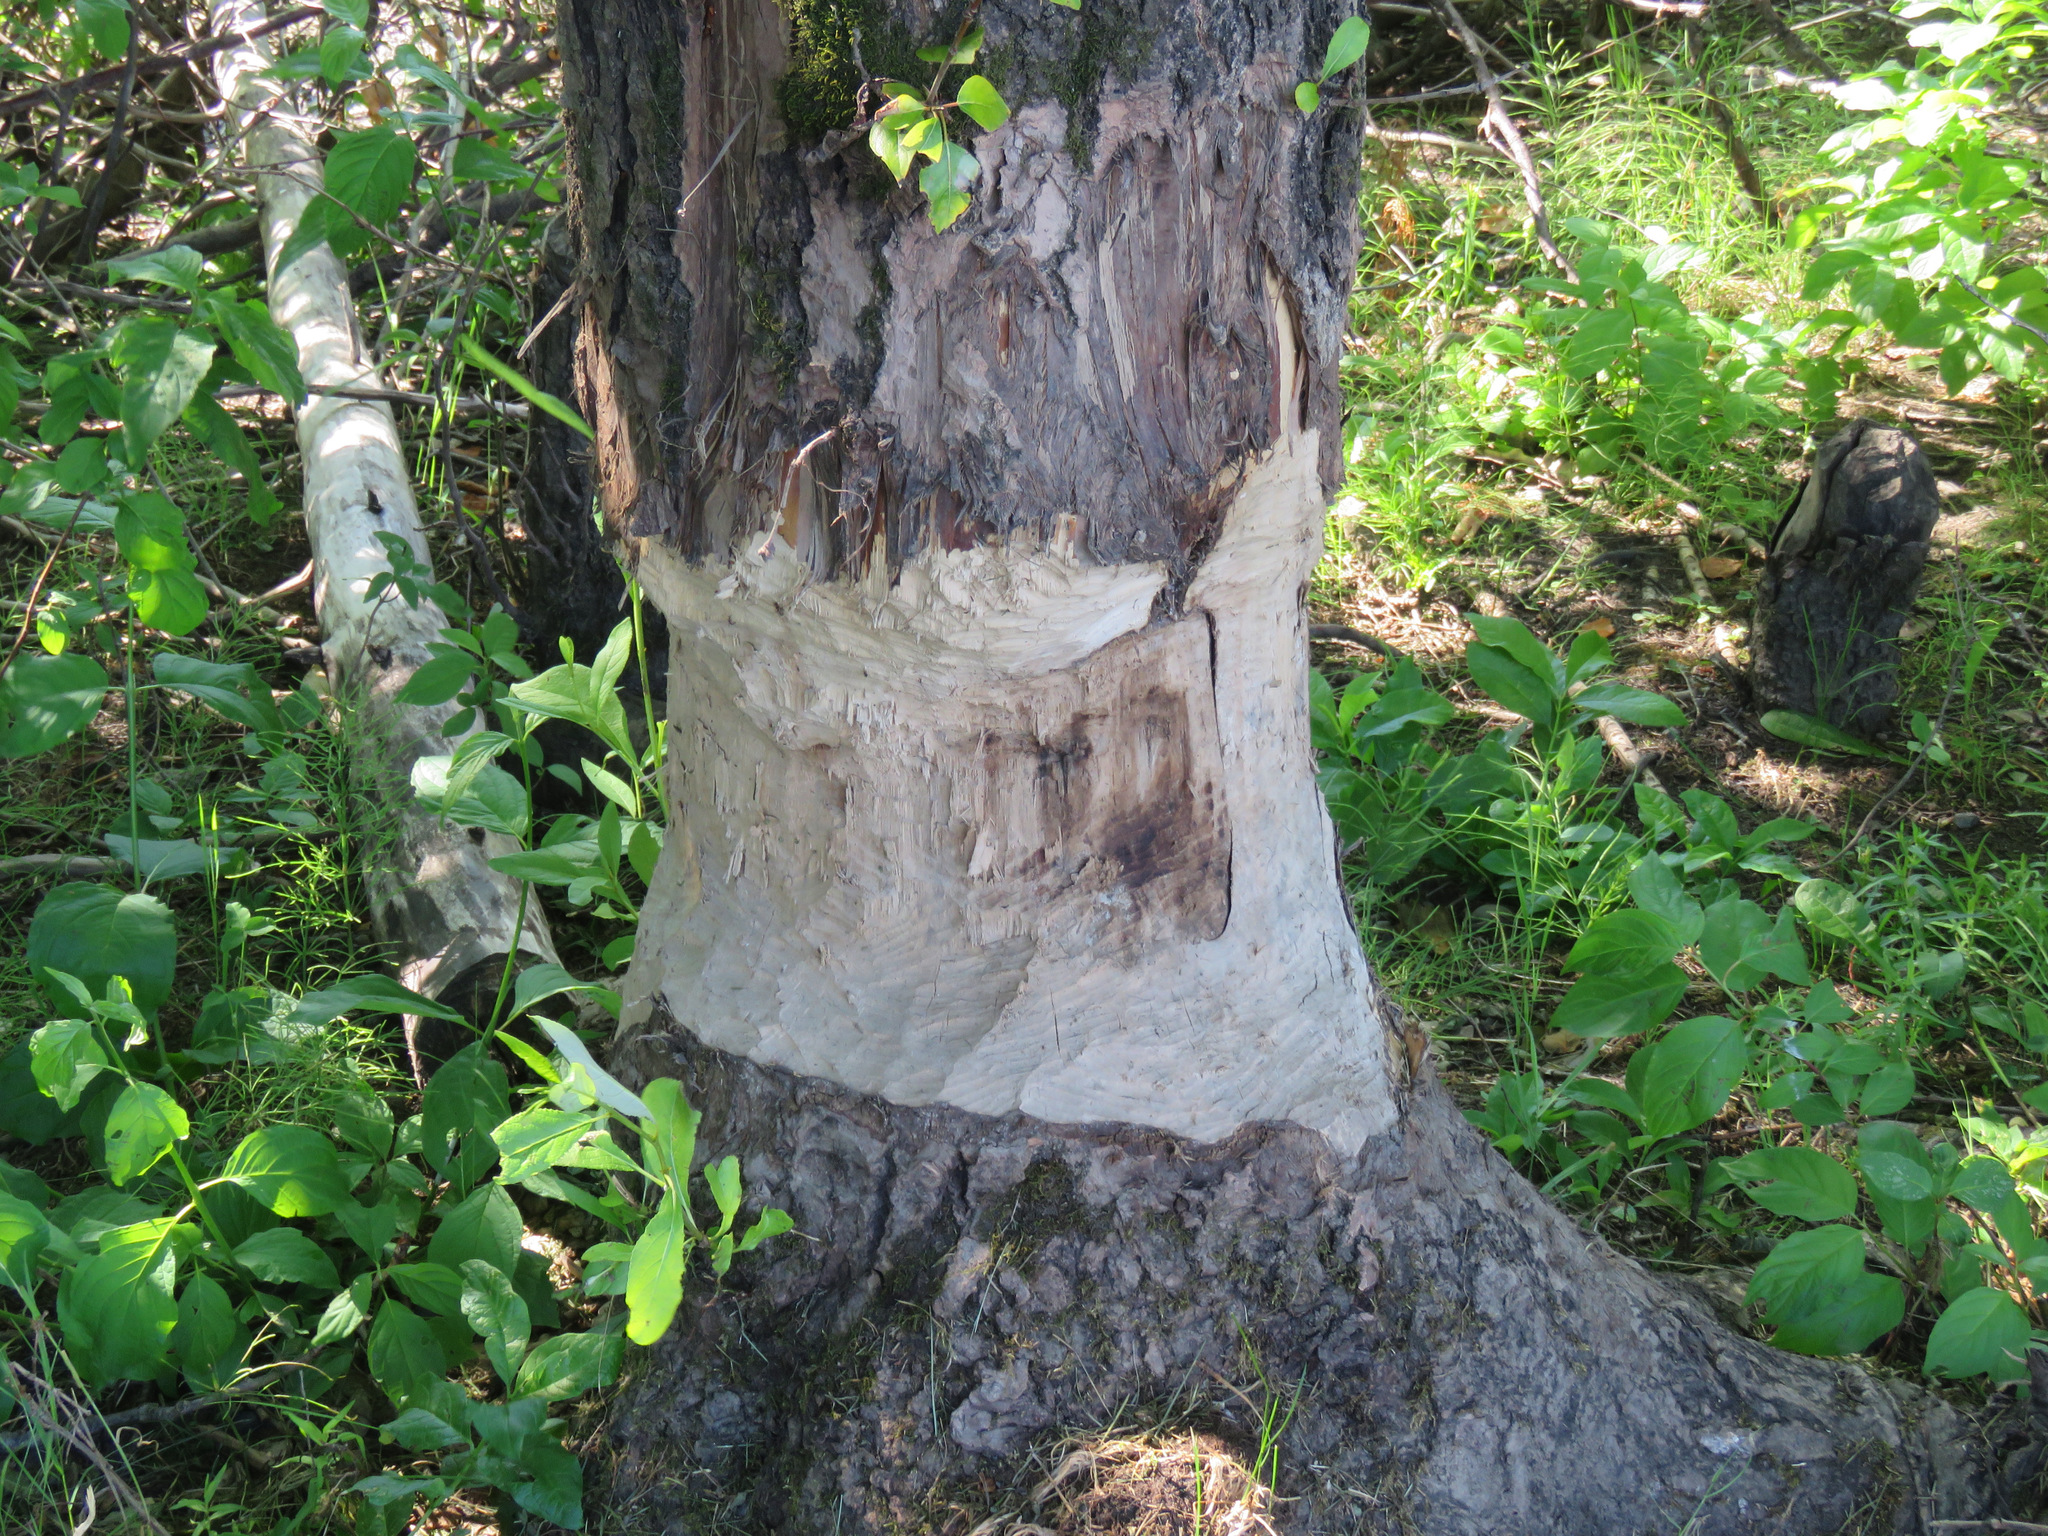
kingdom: Animalia
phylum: Chordata
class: Mammalia
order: Rodentia
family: Castoridae
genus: Castor
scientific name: Castor canadensis
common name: American beaver
